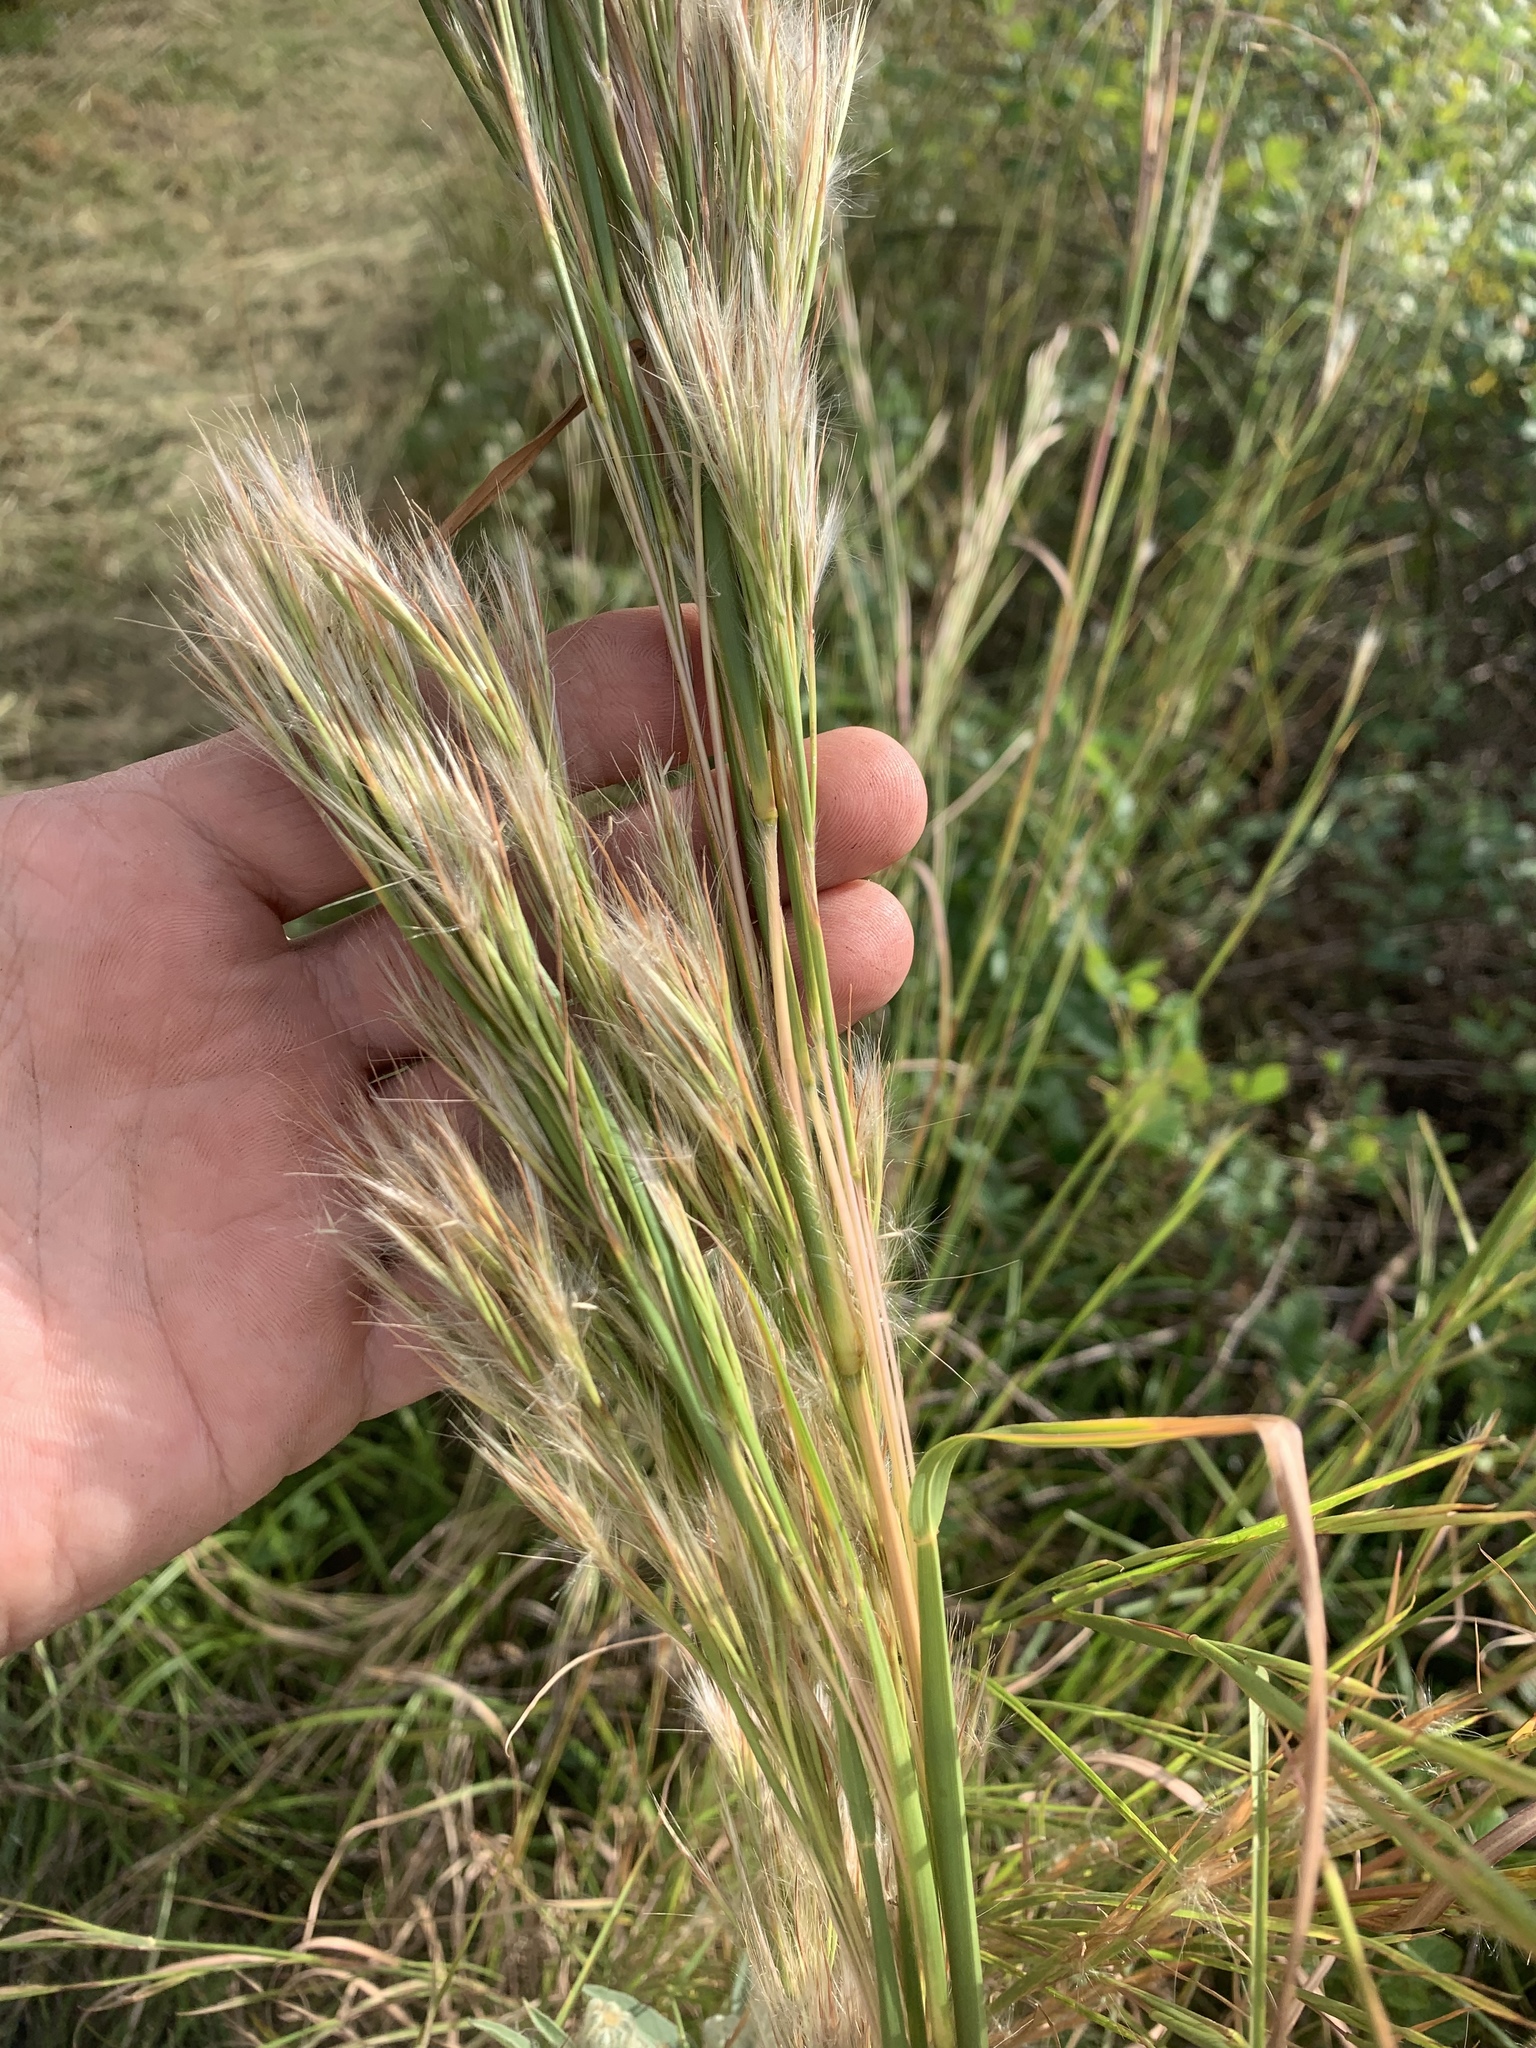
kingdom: Plantae
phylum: Tracheophyta
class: Liliopsida
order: Poales
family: Poaceae
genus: Andropogon
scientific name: Andropogon tenuispatheus
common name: Bushy bluestem
